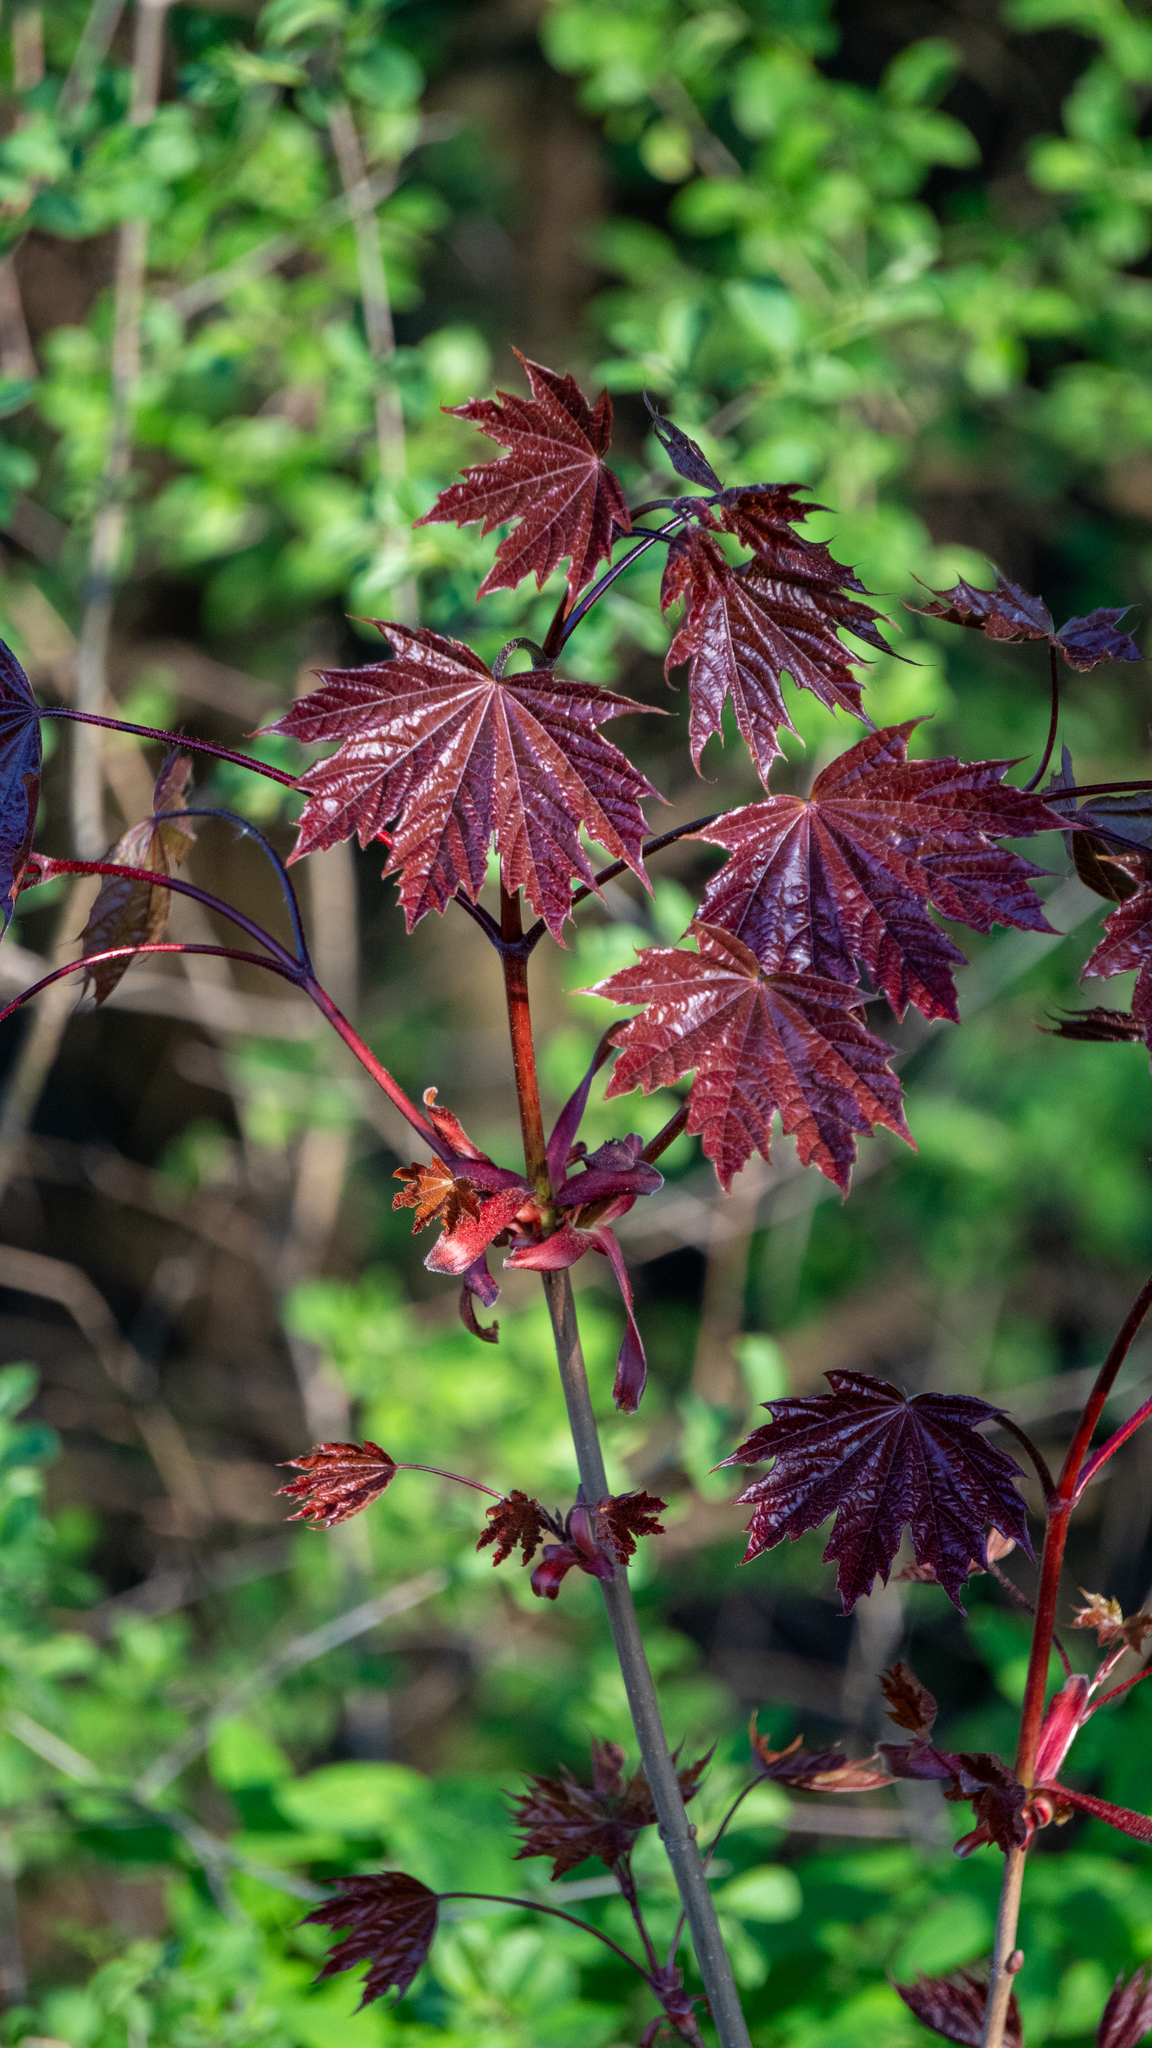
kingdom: Plantae
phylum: Tracheophyta
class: Magnoliopsida
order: Sapindales
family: Sapindaceae
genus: Acer
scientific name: Acer platanoides
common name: Norway maple
